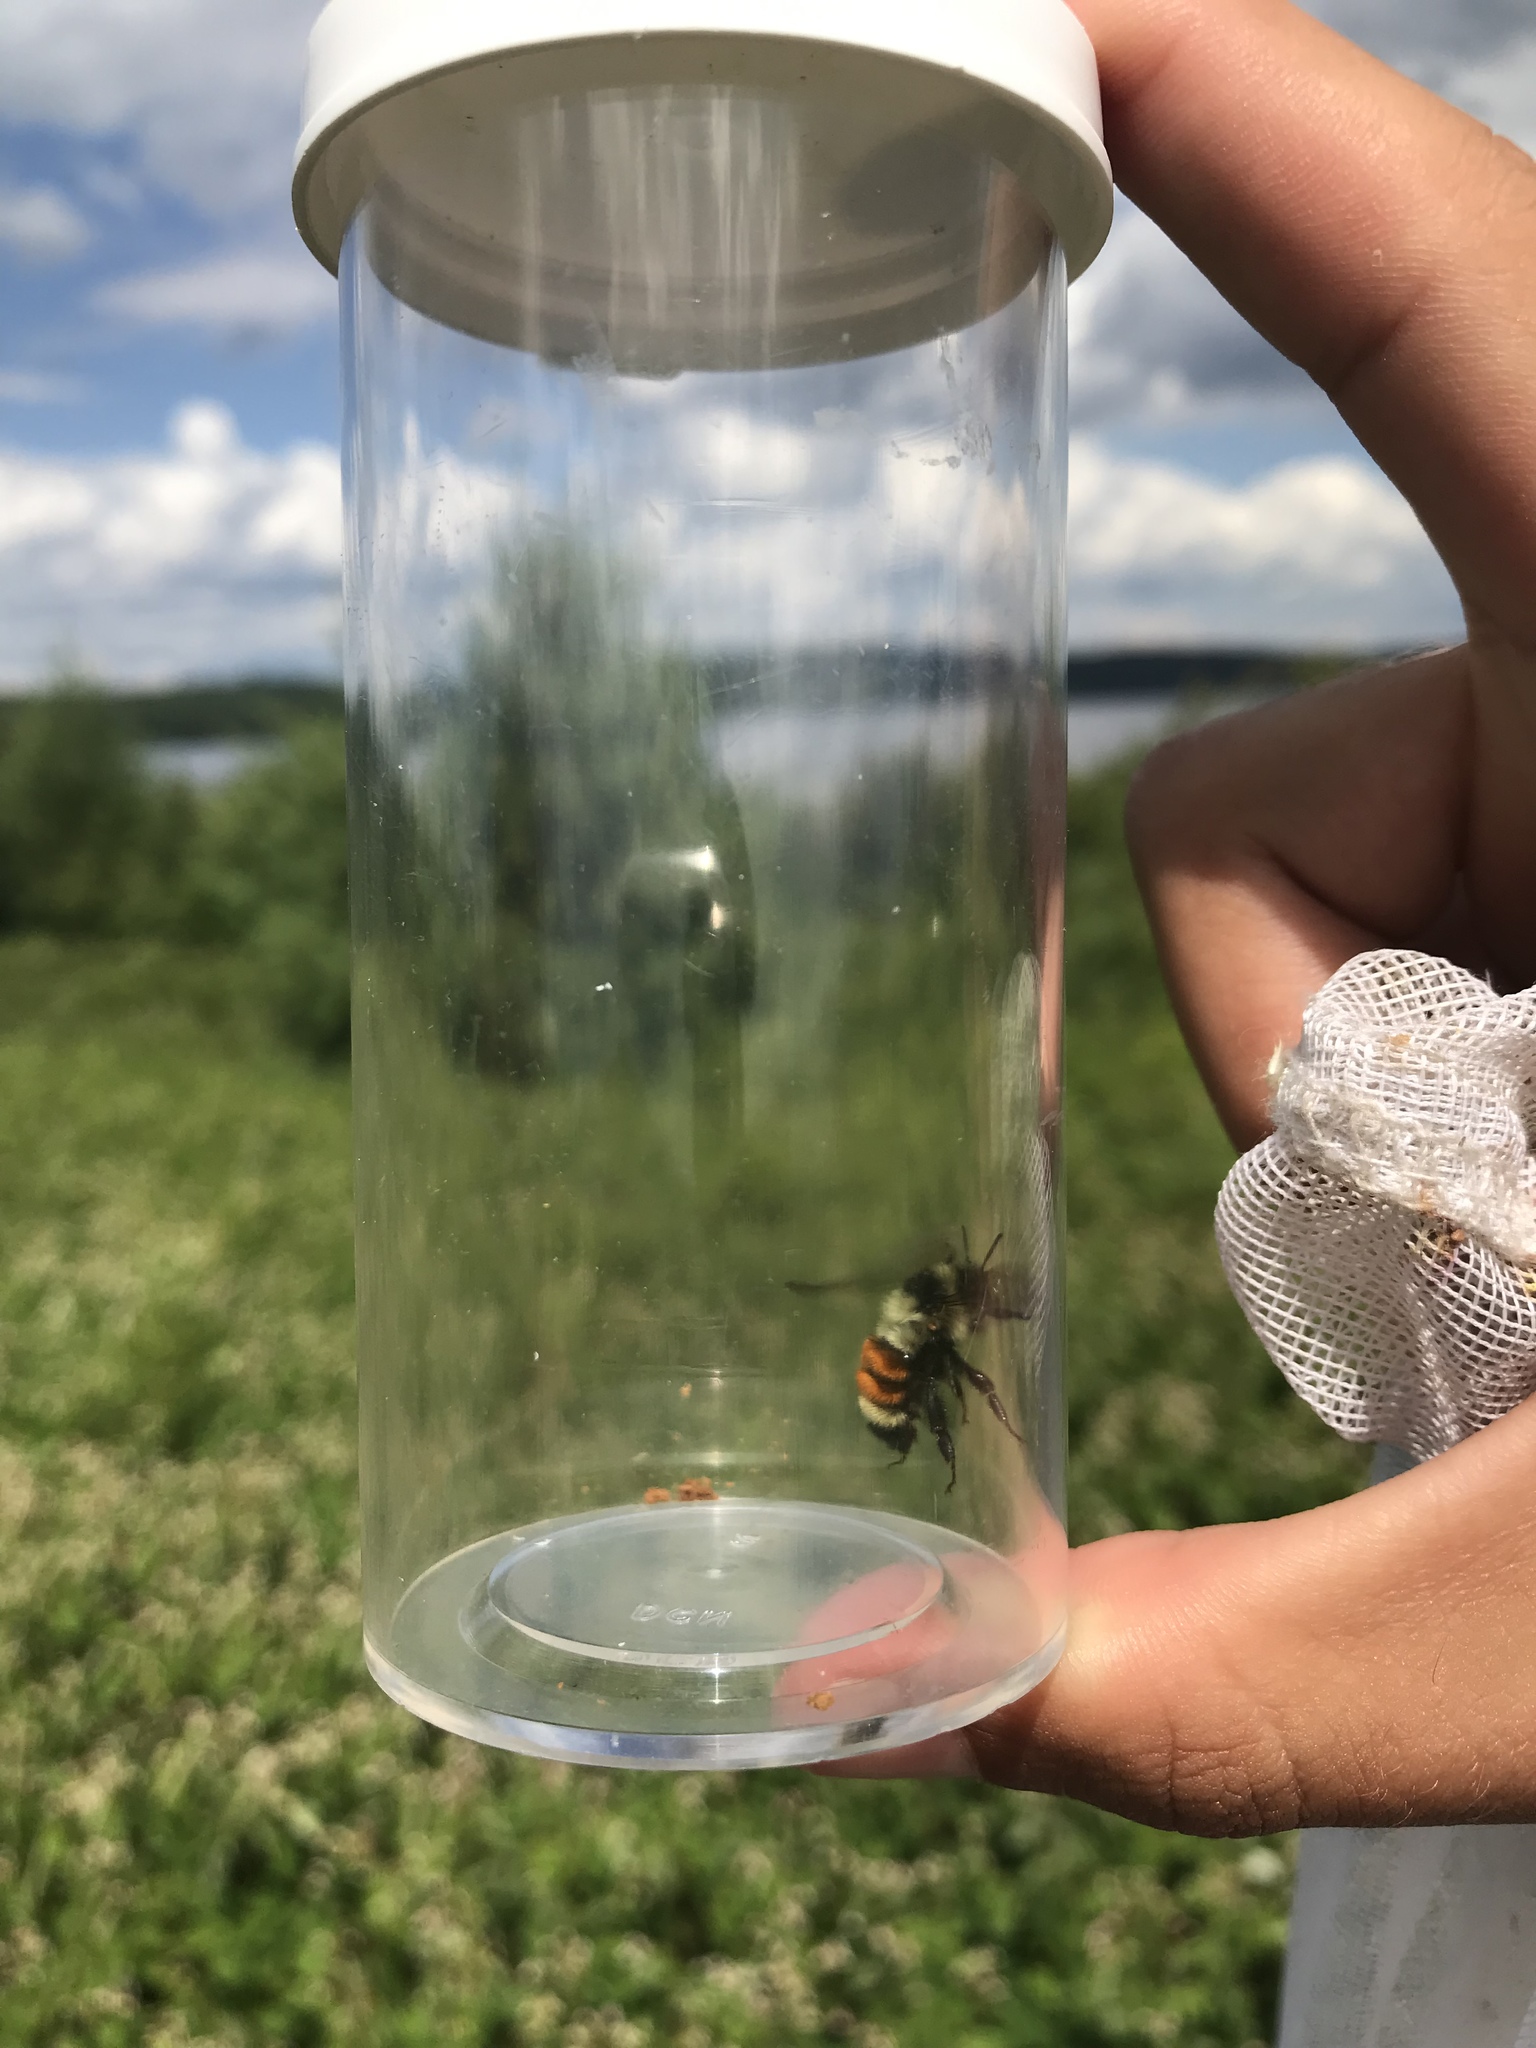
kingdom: Animalia
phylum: Arthropoda
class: Insecta
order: Hymenoptera
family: Apidae
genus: Bombus
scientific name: Bombus ternarius
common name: Tri-colored bumble bee
